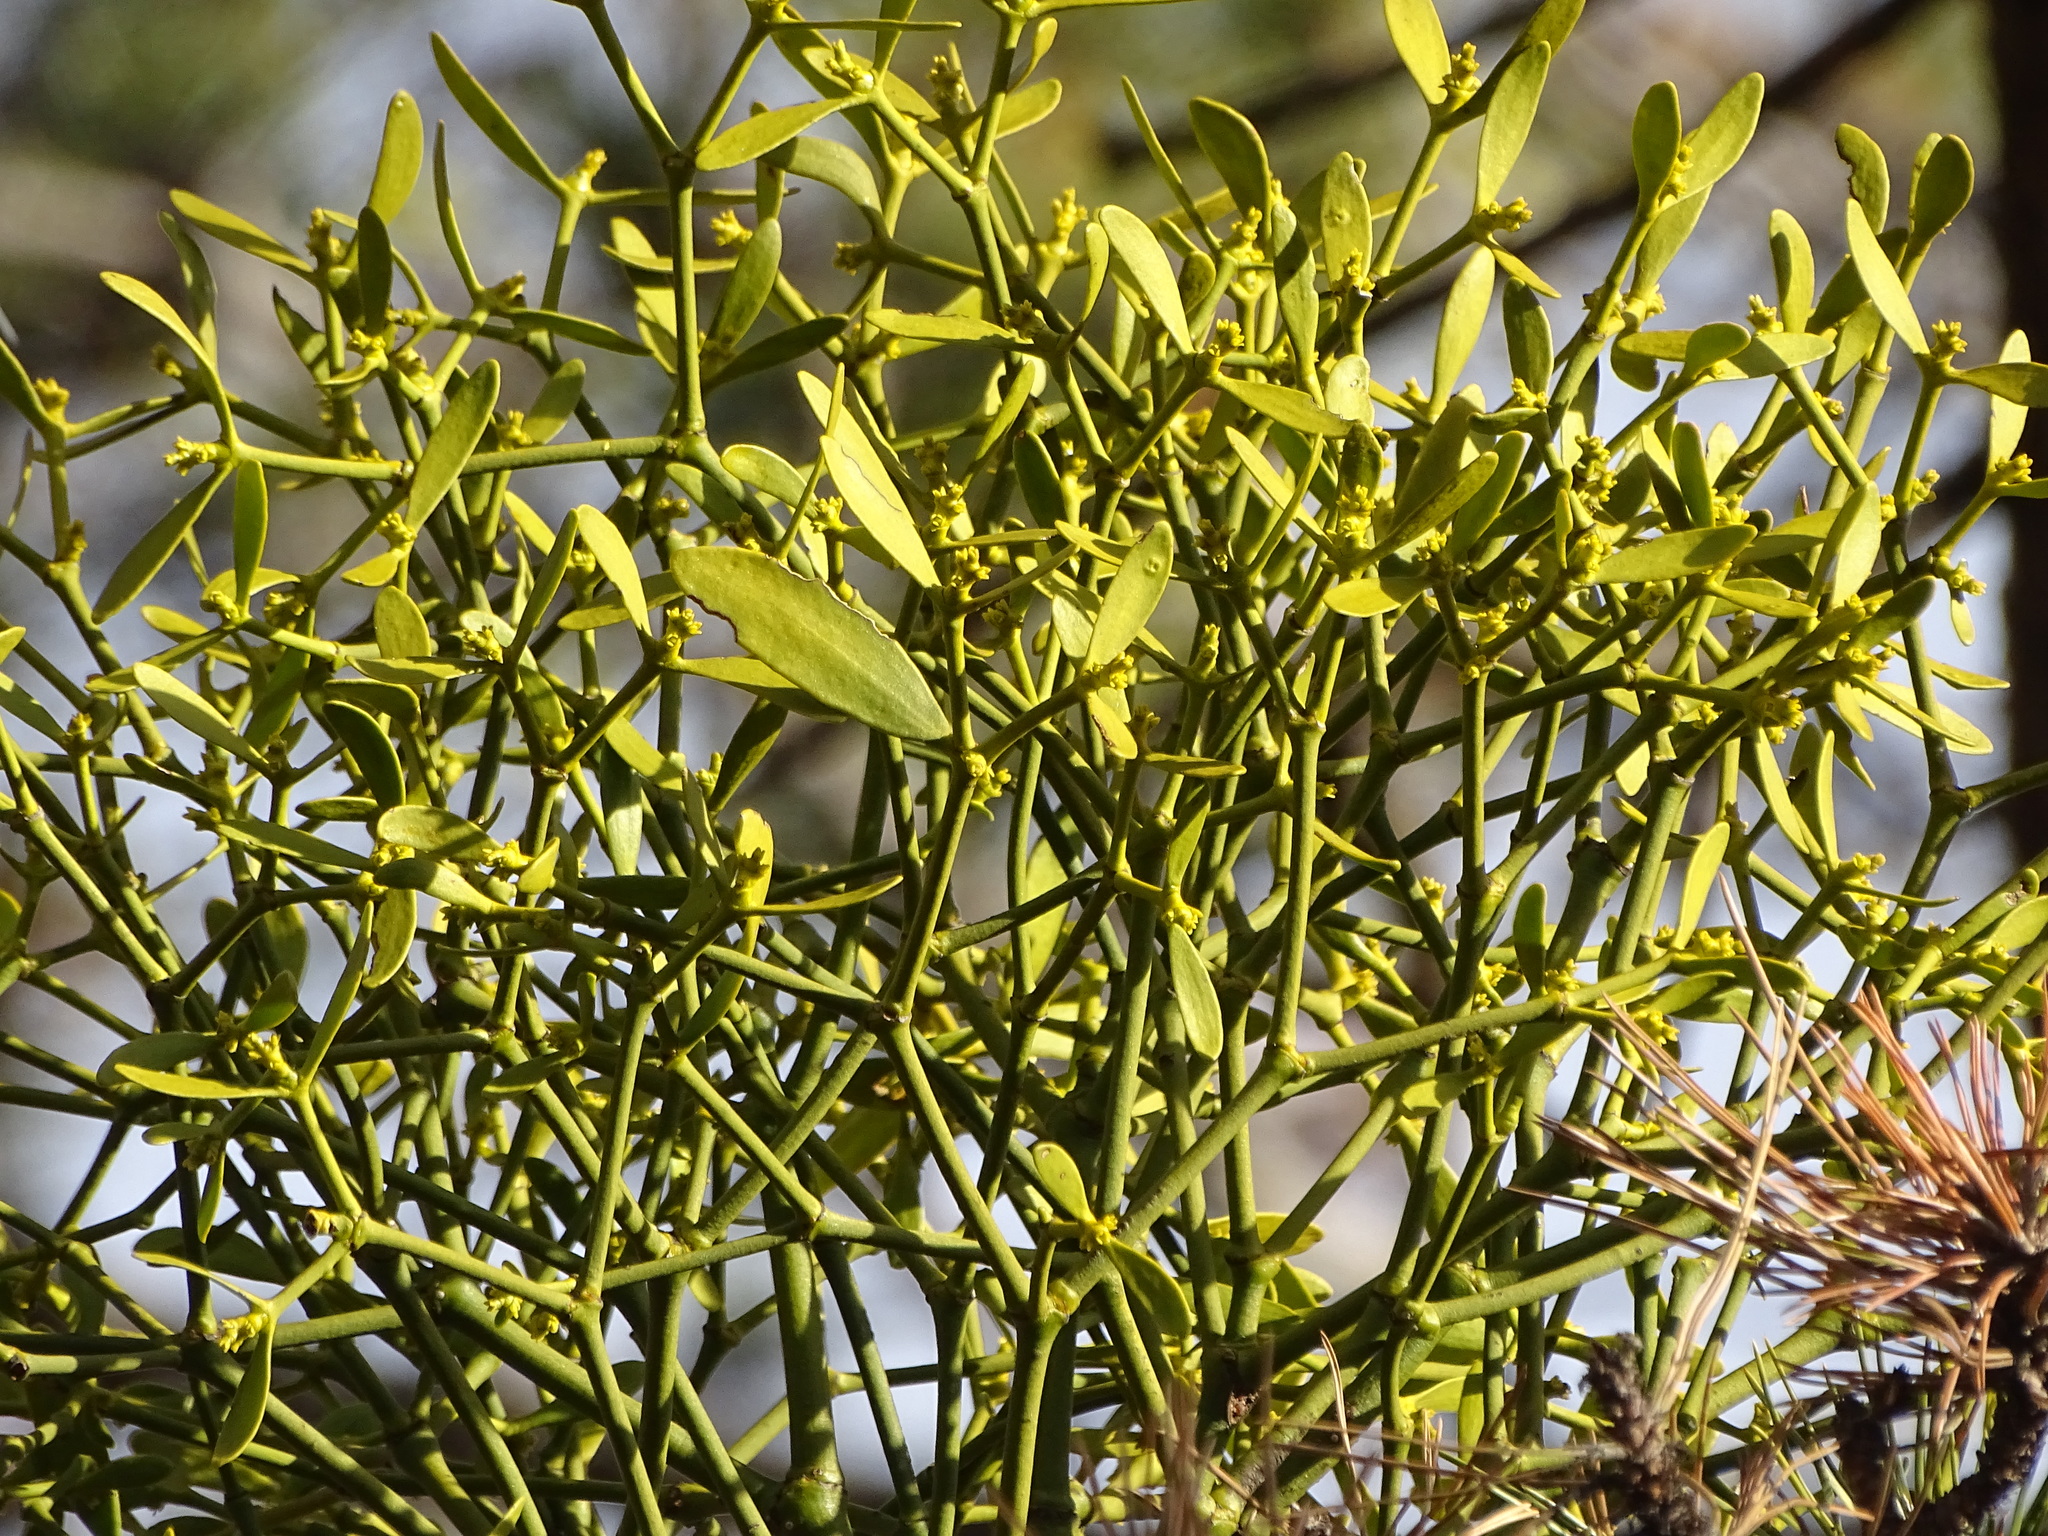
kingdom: Plantae
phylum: Tracheophyta
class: Magnoliopsida
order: Santalales
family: Viscaceae
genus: Viscum
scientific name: Viscum laxum
